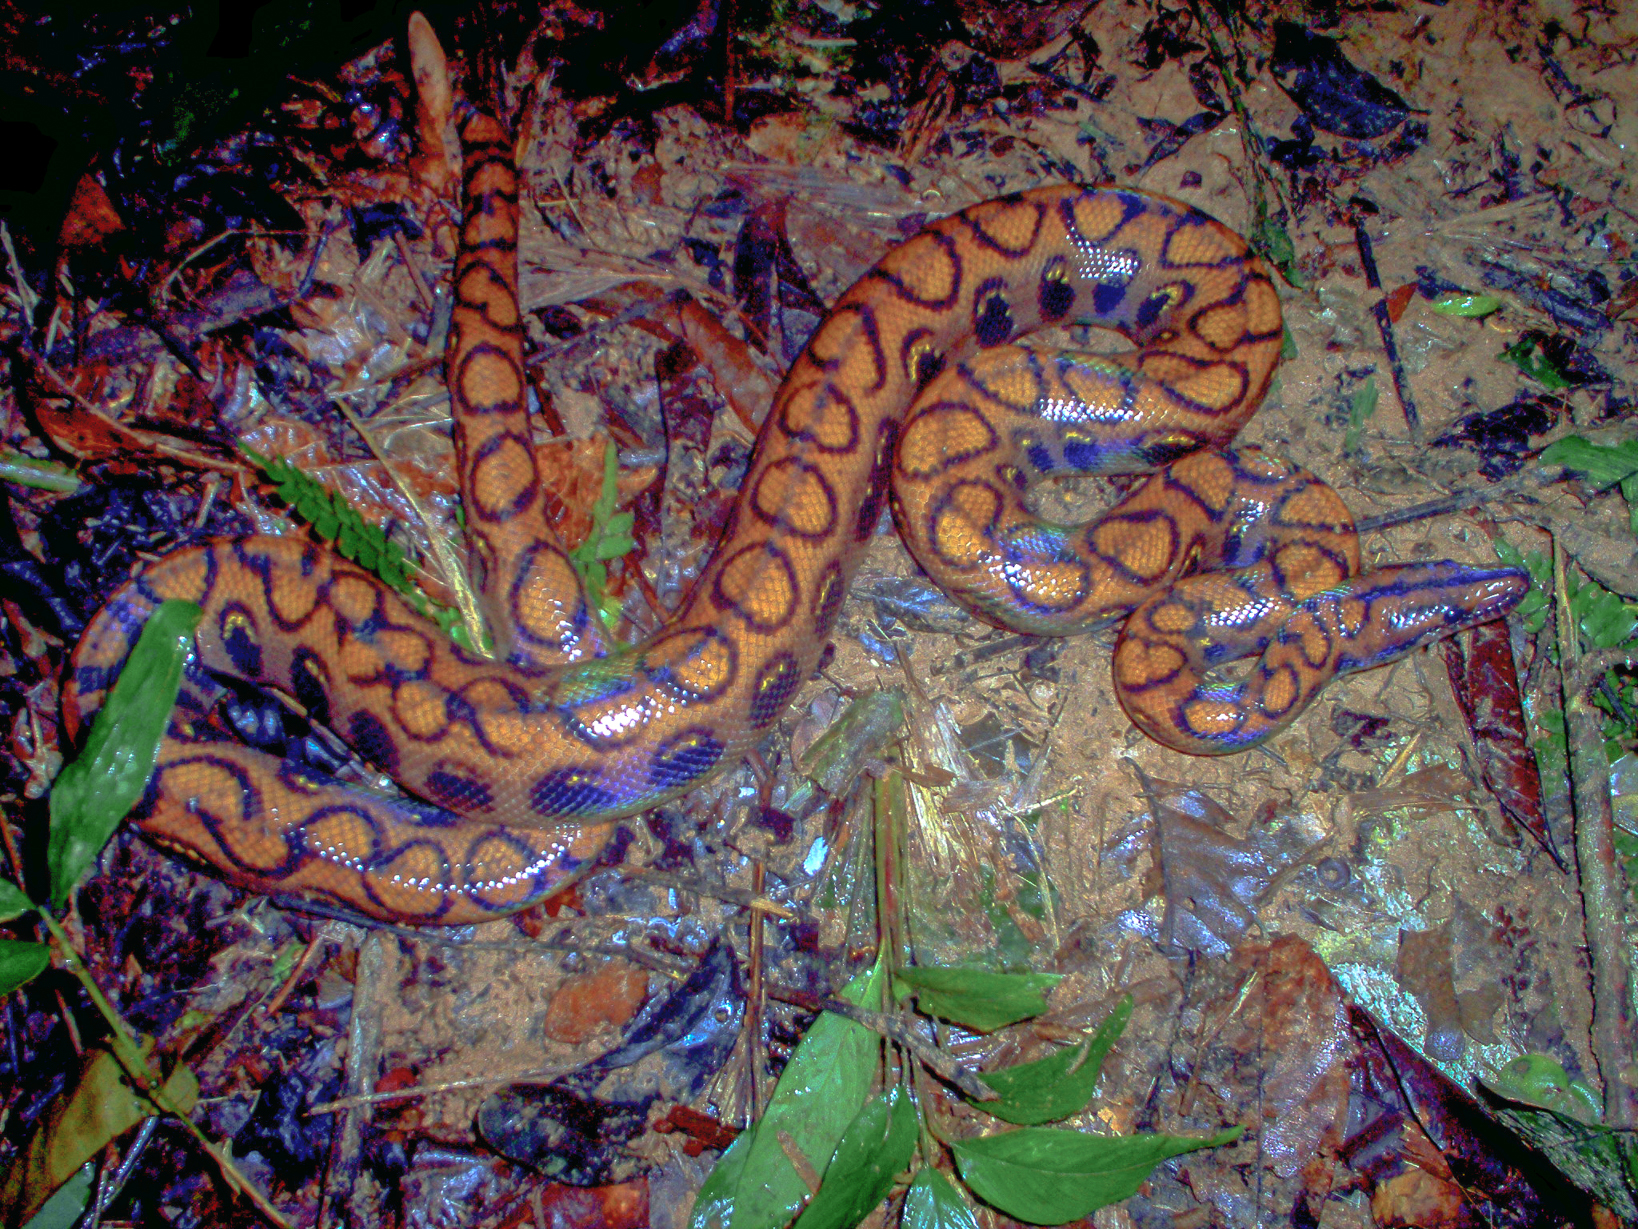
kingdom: Animalia
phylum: Chordata
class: Squamata
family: Boidae
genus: Epicrates
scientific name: Epicrates cenchria
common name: Rainbow boa
